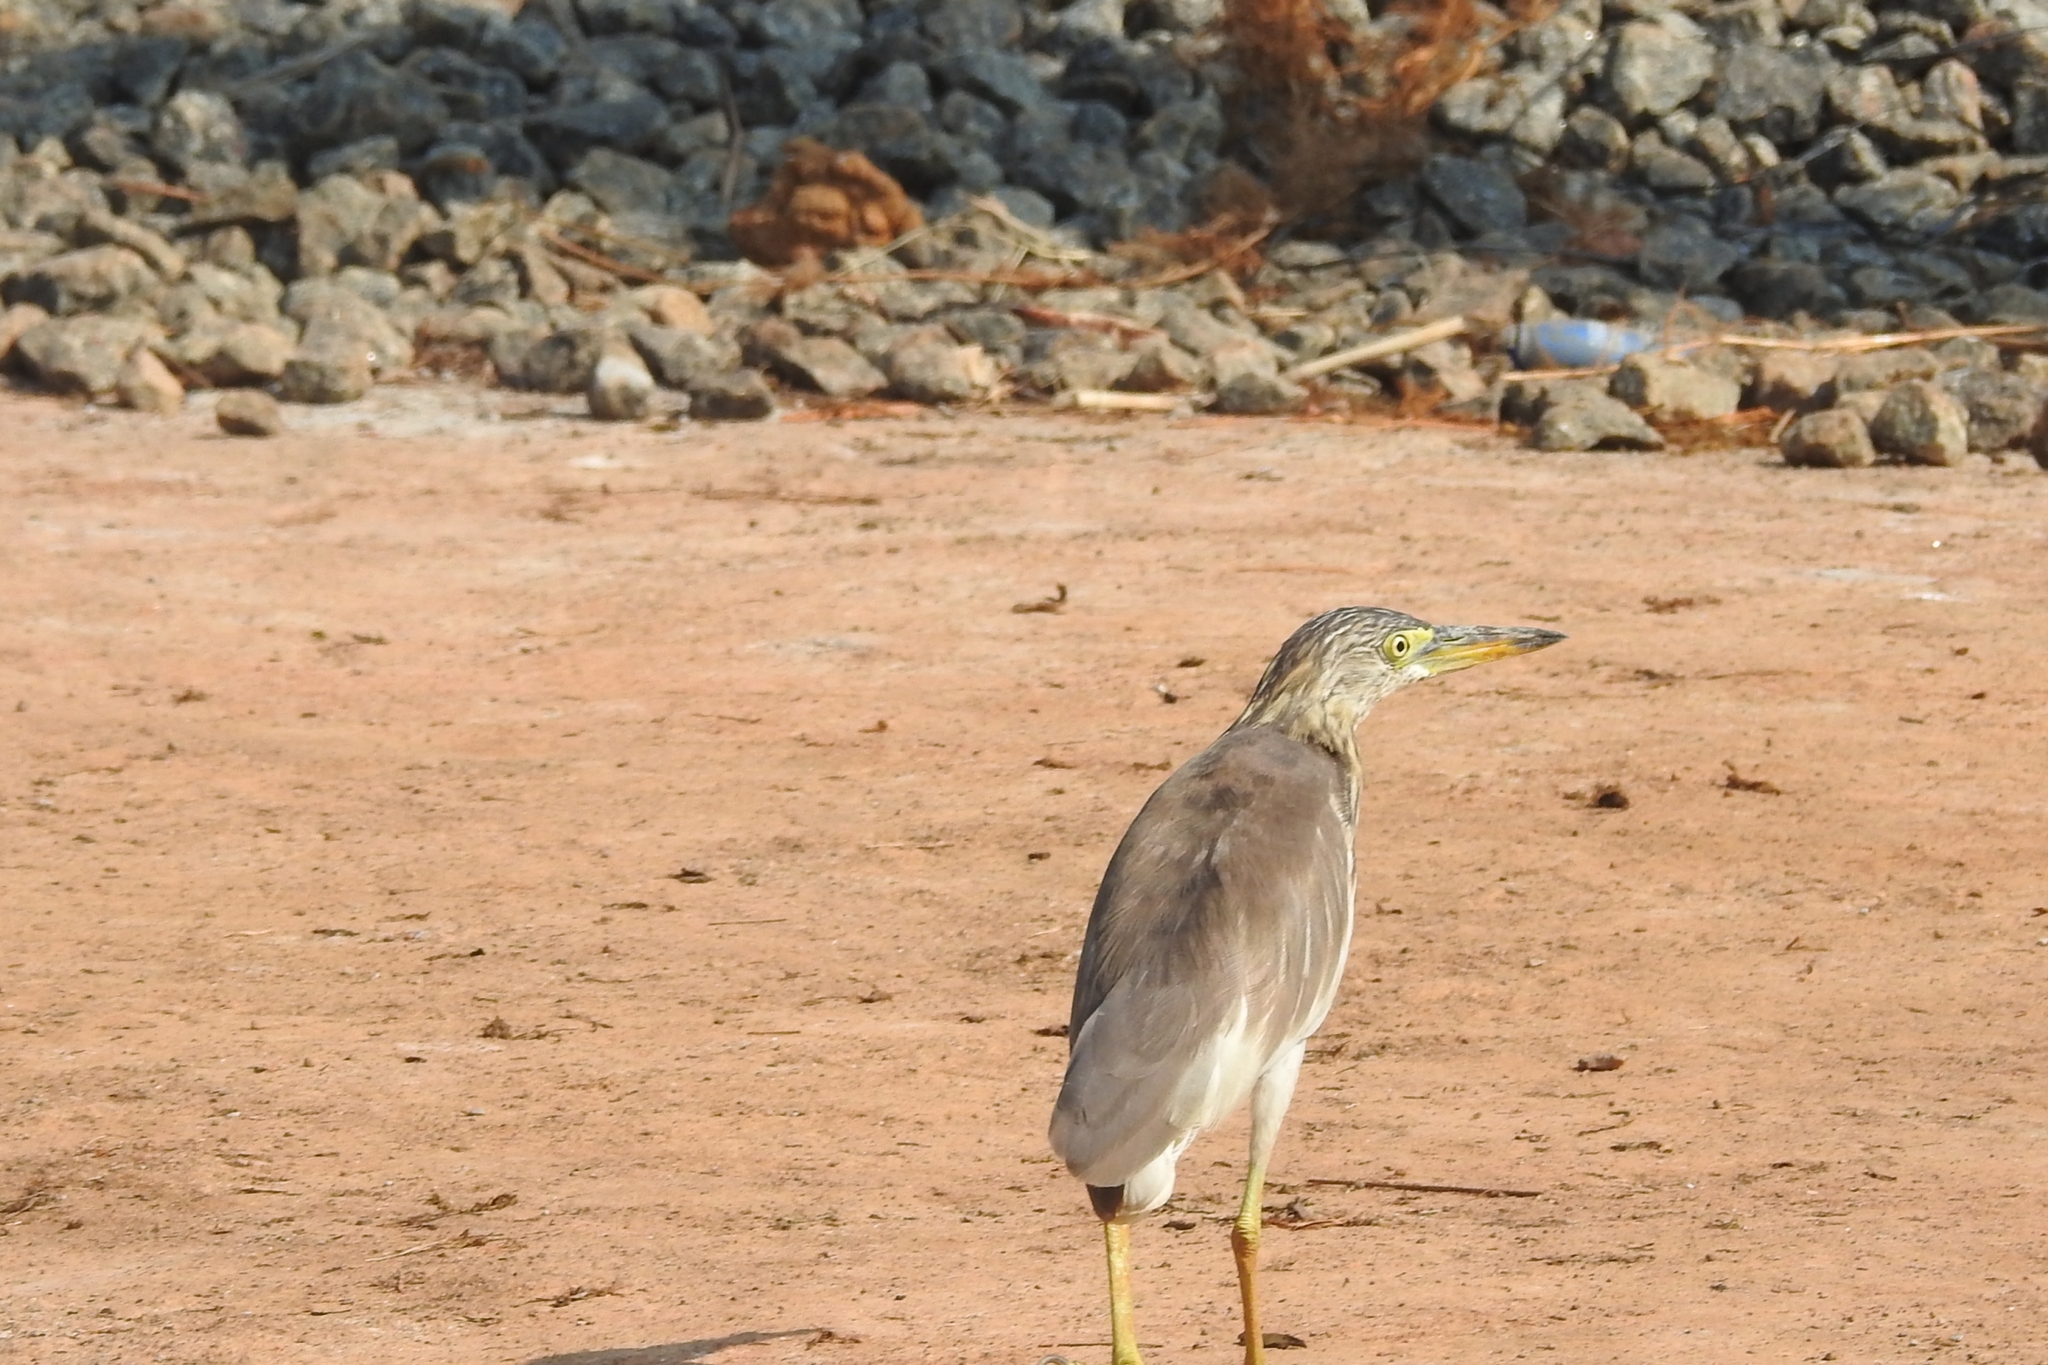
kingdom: Animalia
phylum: Chordata
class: Aves
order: Pelecaniformes
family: Ardeidae
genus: Ardeola
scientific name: Ardeola grayii
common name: Indian pond heron
